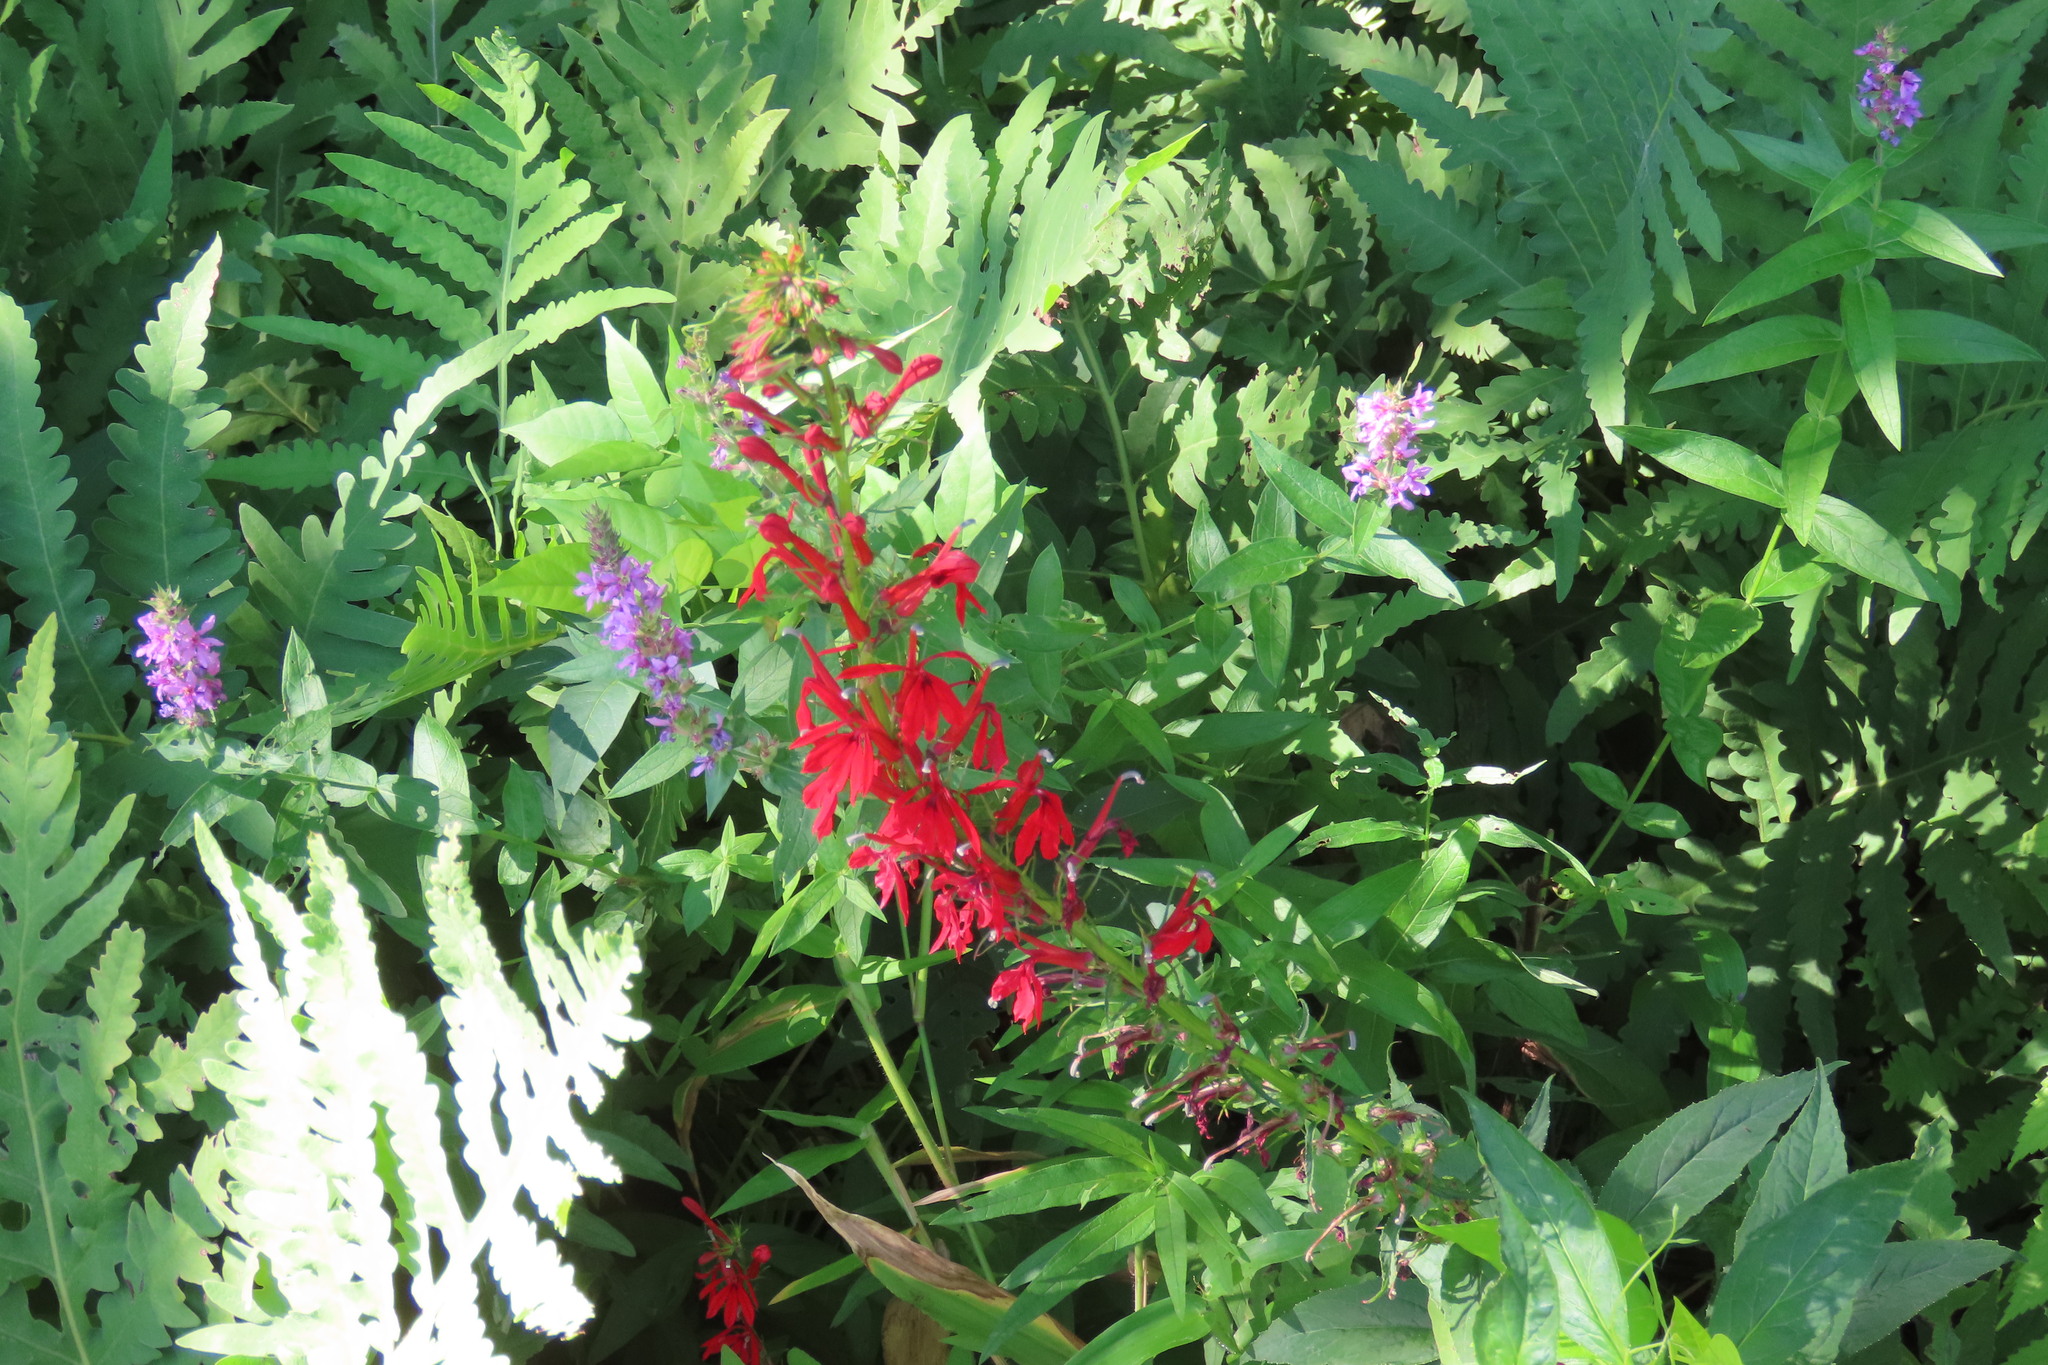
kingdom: Plantae
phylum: Tracheophyta
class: Magnoliopsida
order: Asterales
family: Campanulaceae
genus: Lobelia
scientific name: Lobelia cardinalis
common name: Cardinal flower
